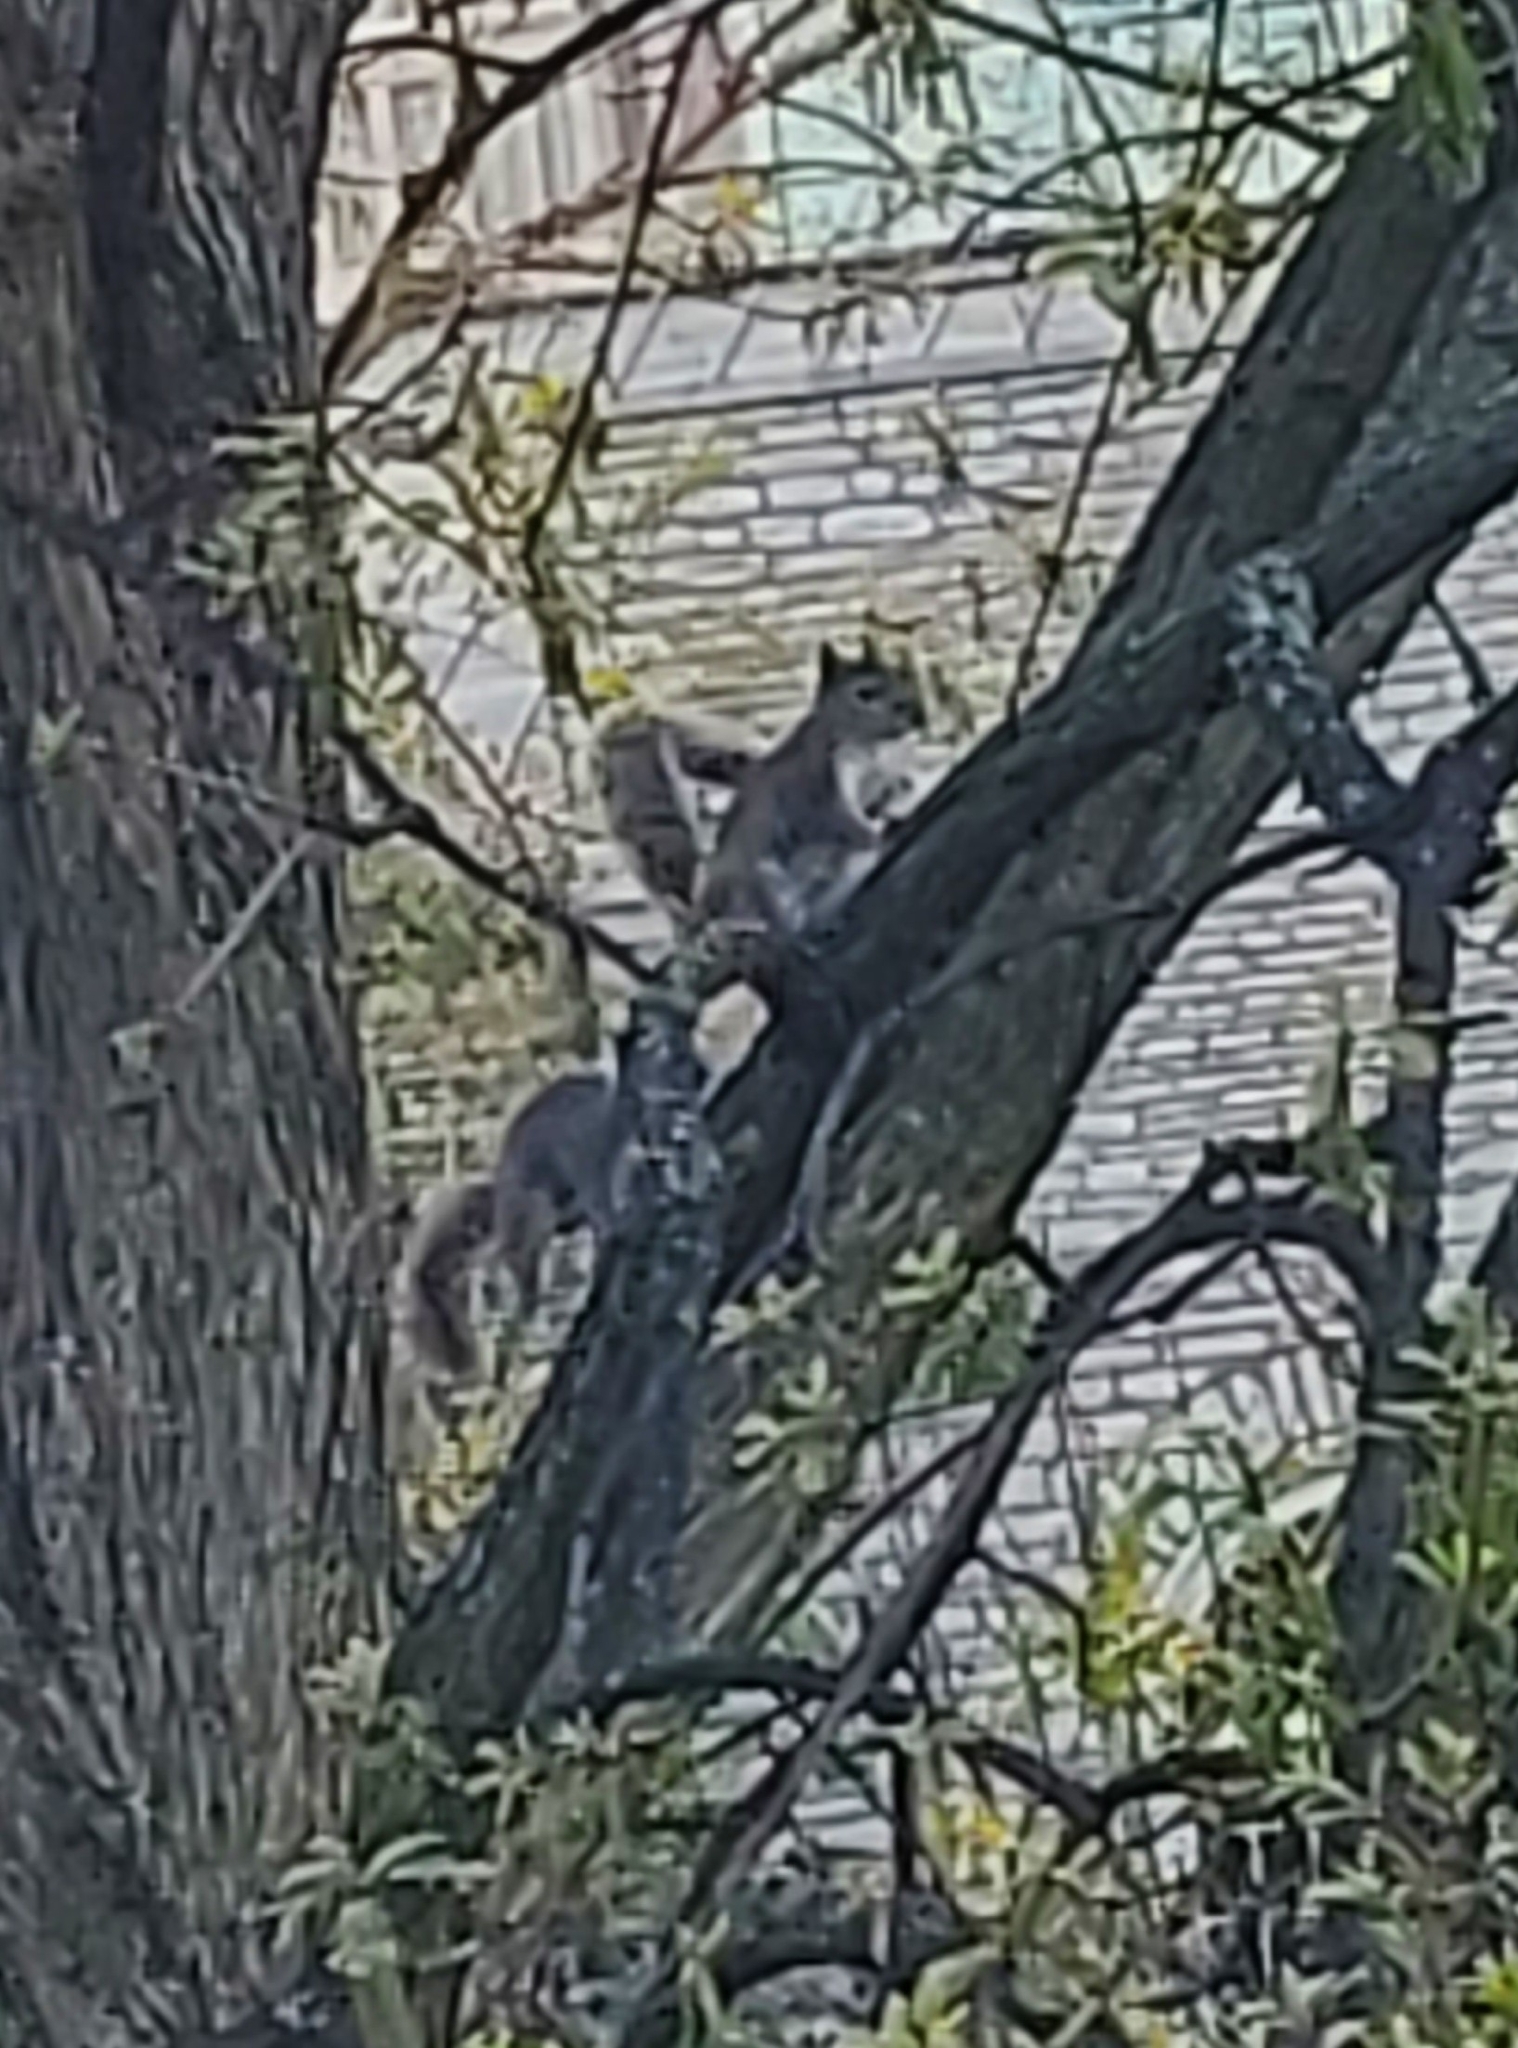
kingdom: Animalia
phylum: Chordata
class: Mammalia
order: Rodentia
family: Sciuridae
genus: Sciurus
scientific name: Sciurus carolinensis
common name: Eastern gray squirrel
